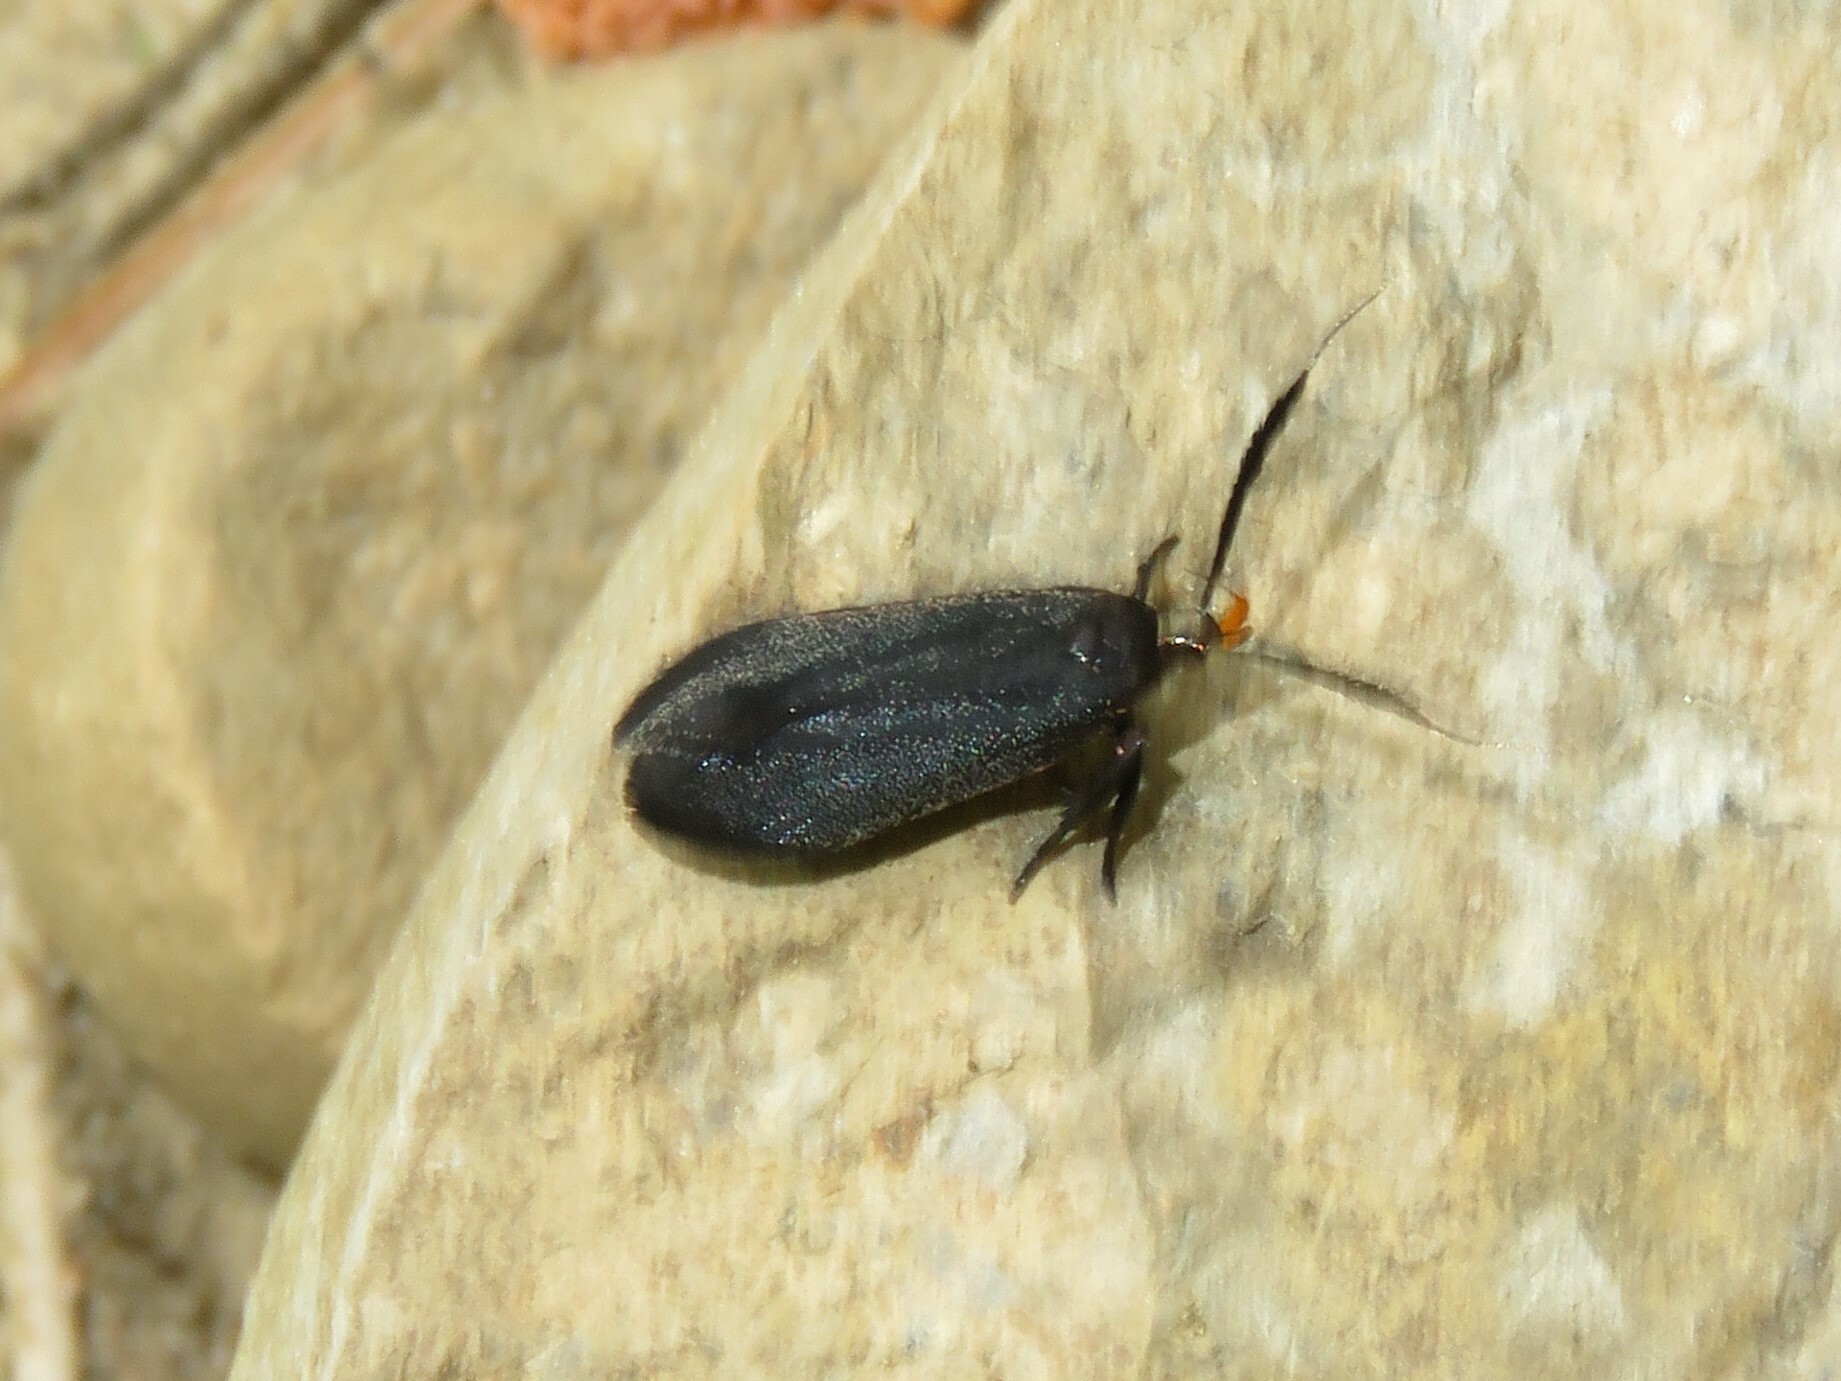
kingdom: Animalia
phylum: Arthropoda
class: Insecta
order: Lepidoptera
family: Gelechiidae
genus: Dichomeris
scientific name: Dichomeris nonstrigella
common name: Little devil moth
